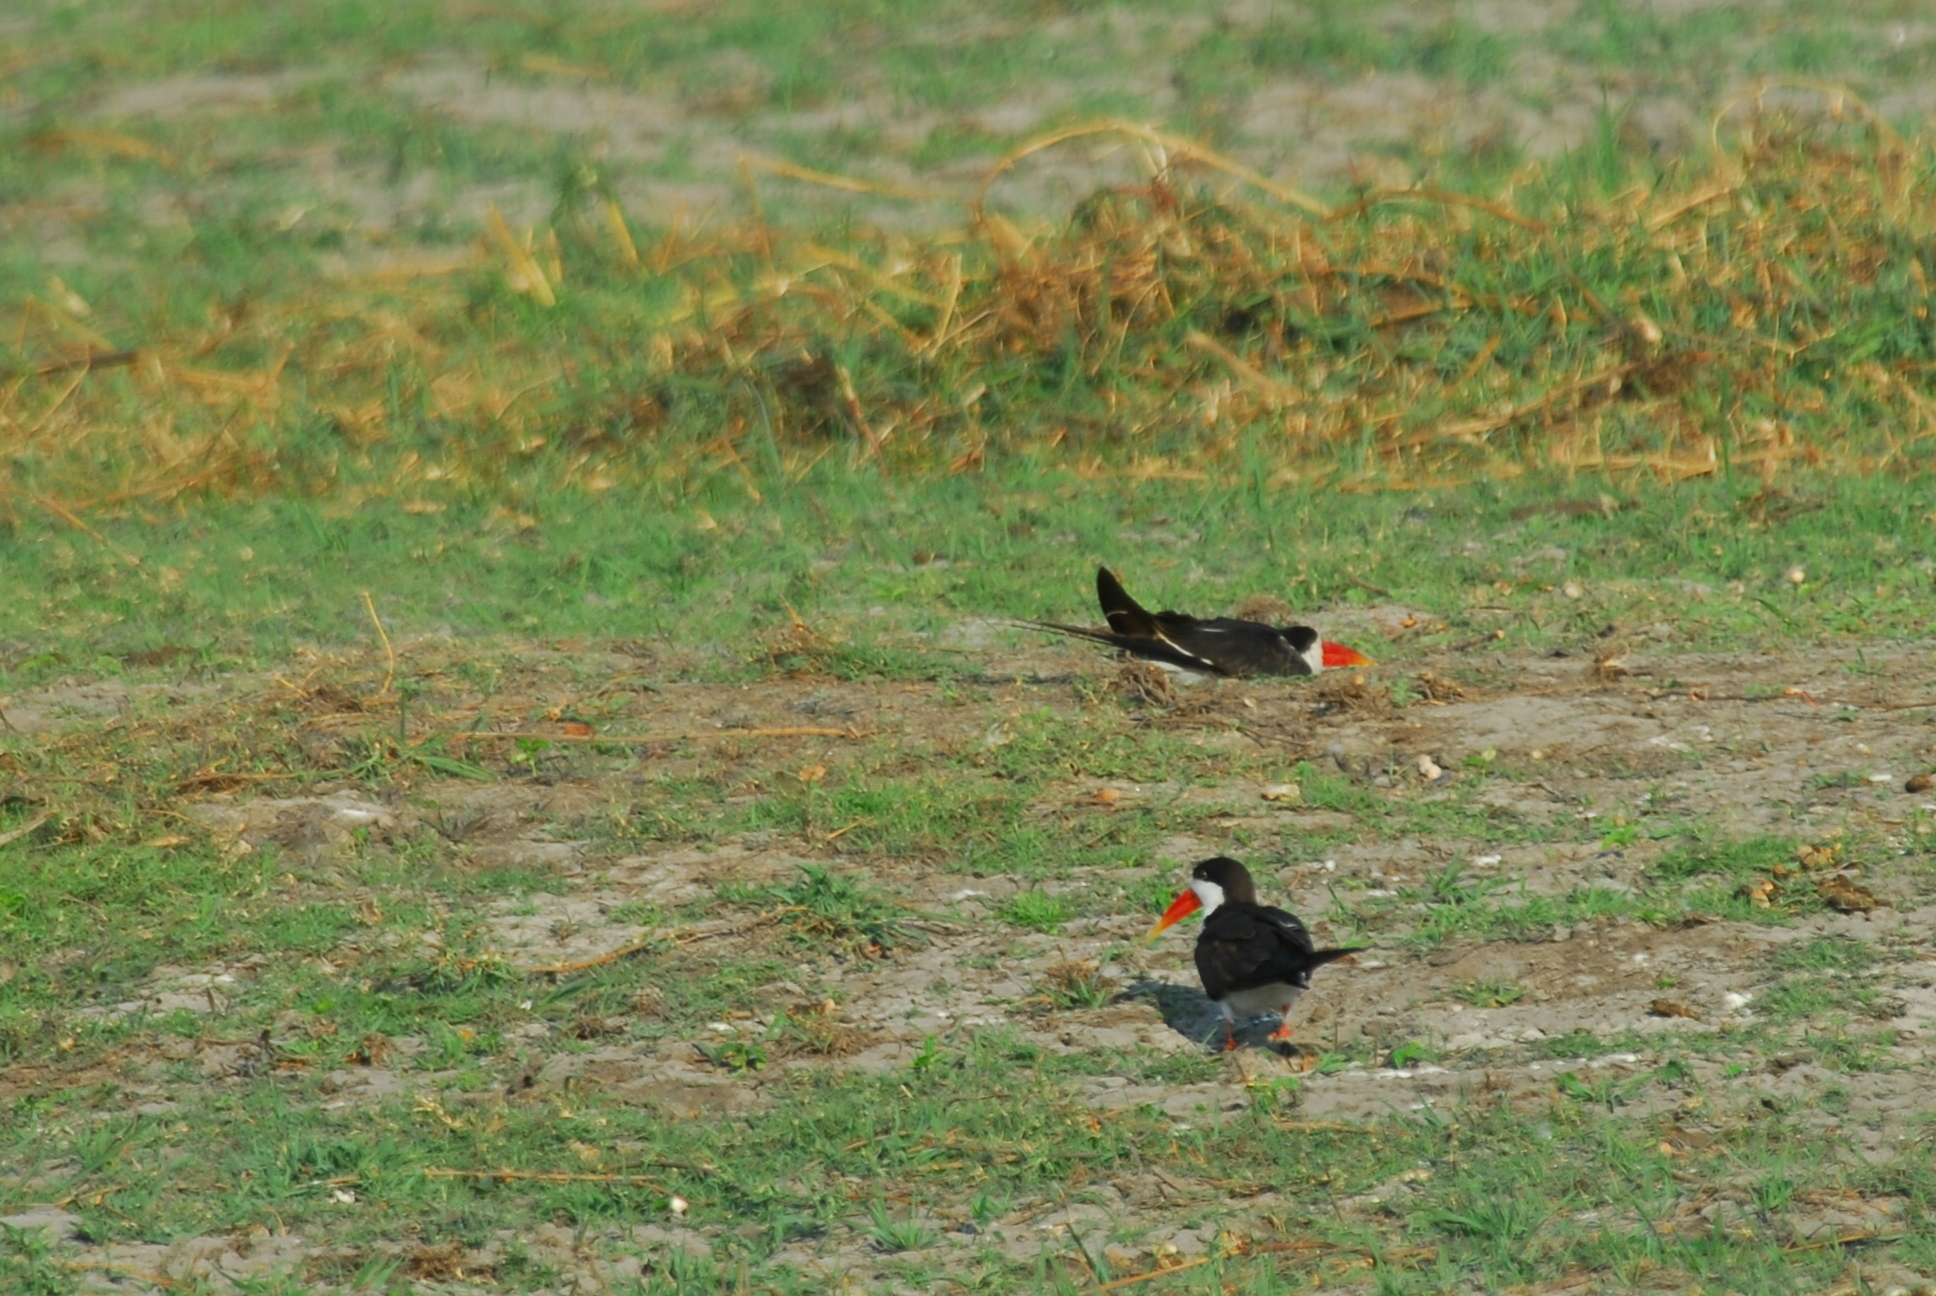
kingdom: Animalia
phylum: Chordata
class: Aves
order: Charadriiformes
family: Laridae
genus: Rynchops
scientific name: Rynchops flavirostris
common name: African skimmer
